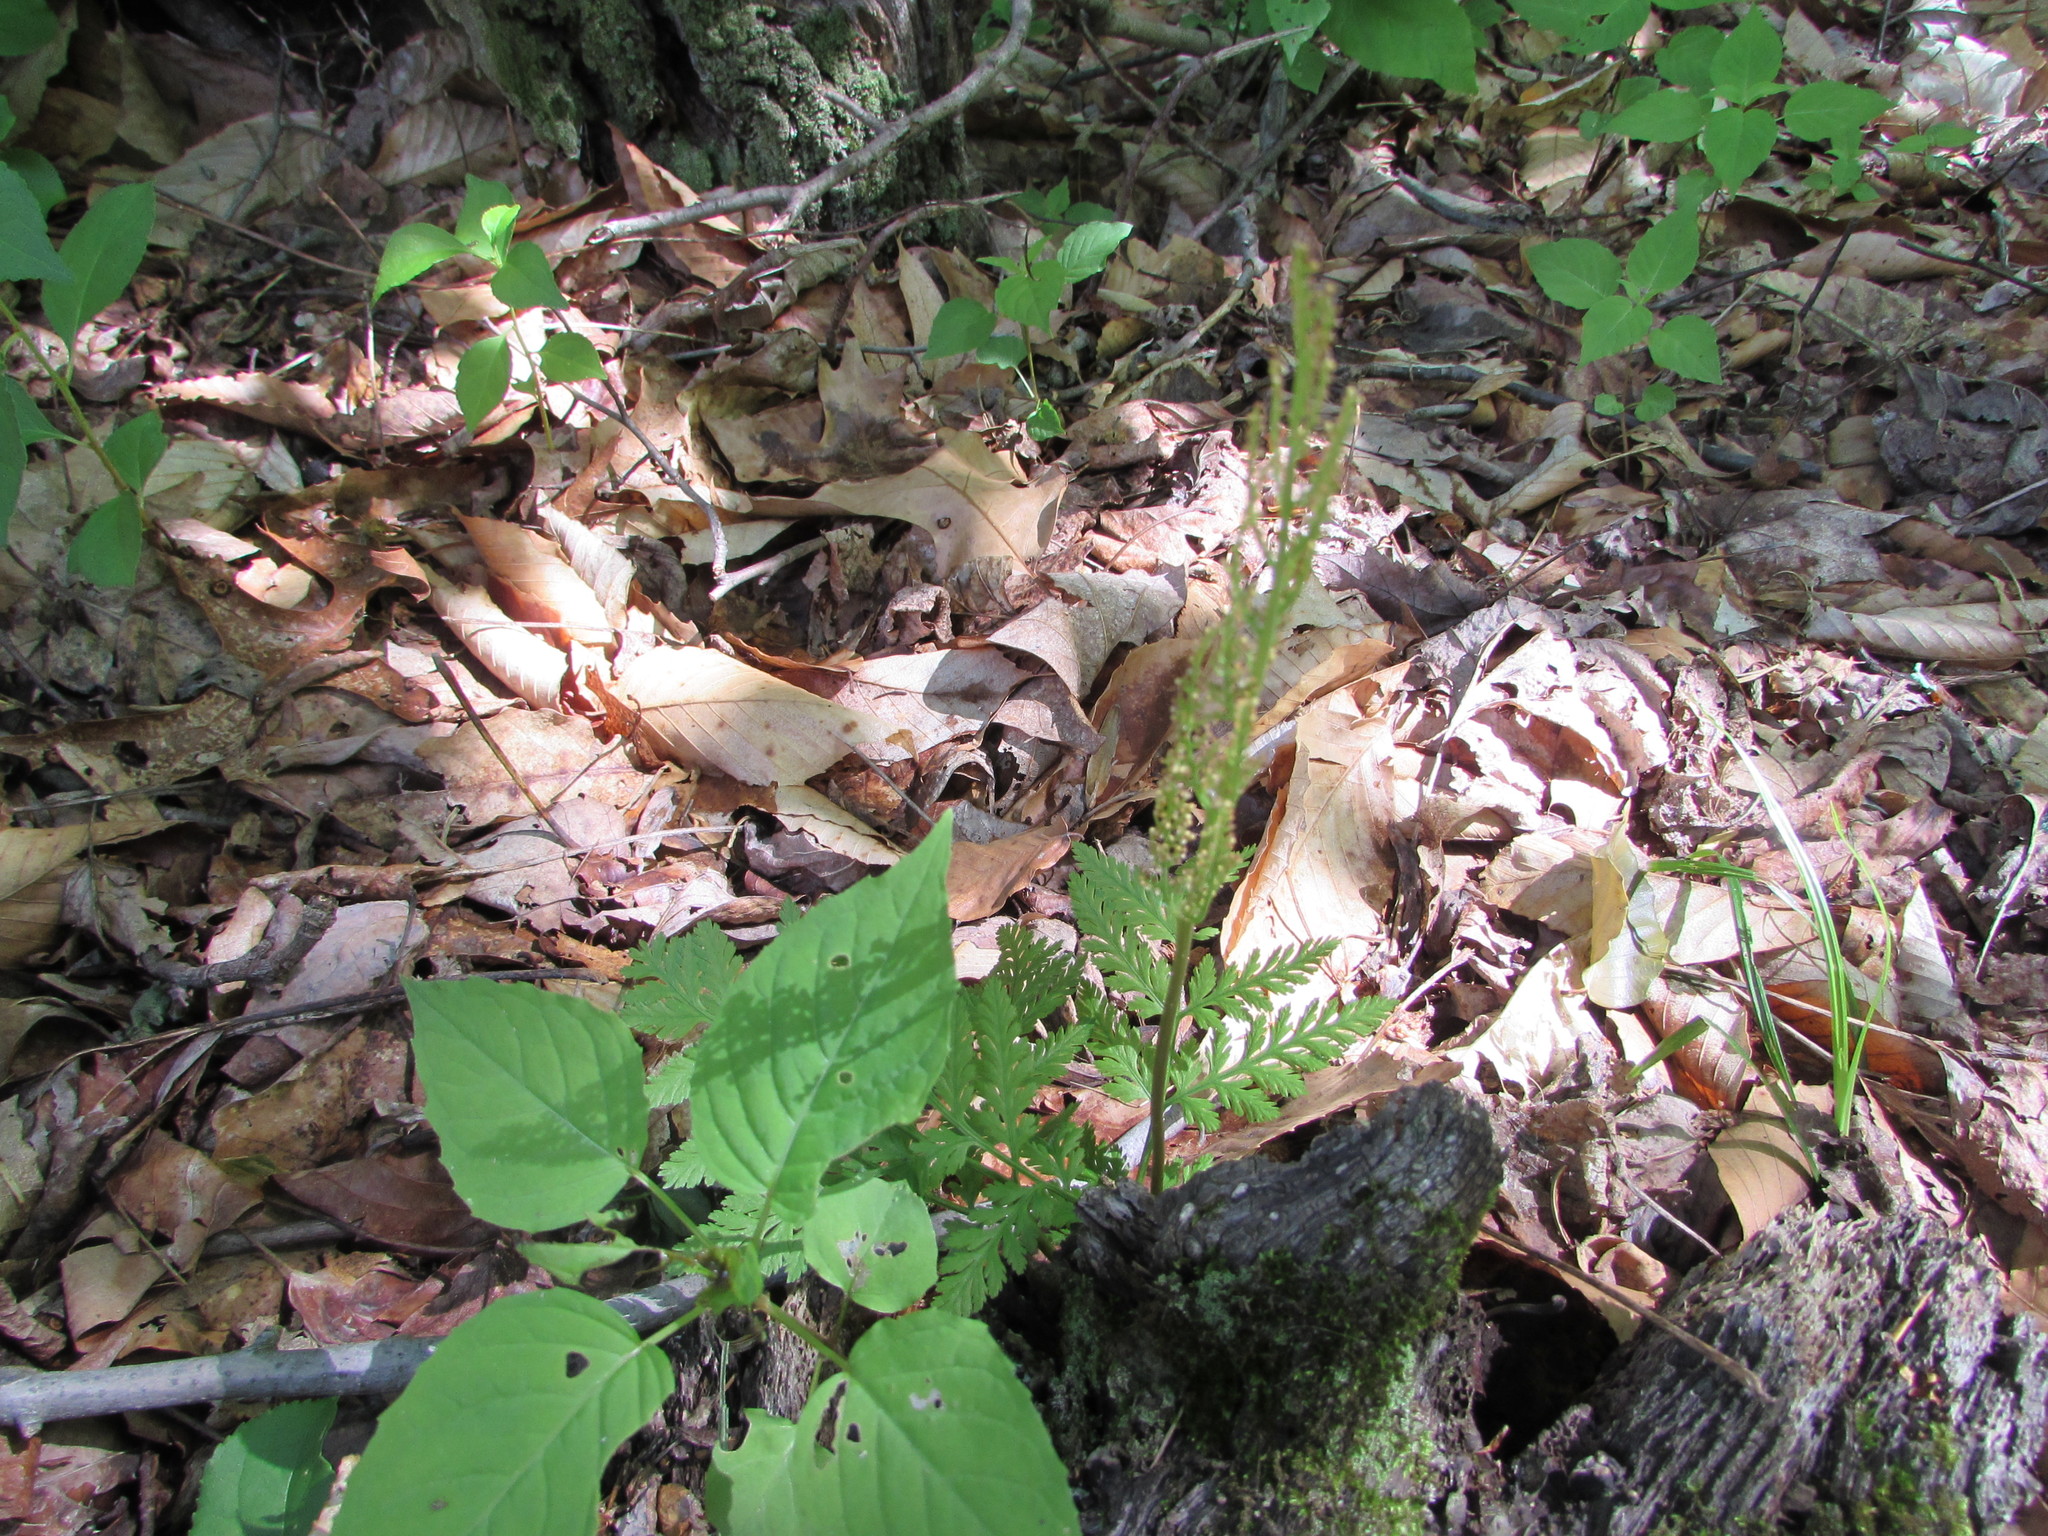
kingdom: Plantae
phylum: Tracheophyta
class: Polypodiopsida
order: Ophioglossales
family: Ophioglossaceae
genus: Botrypus
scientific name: Botrypus virginianus
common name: Common grapefern
